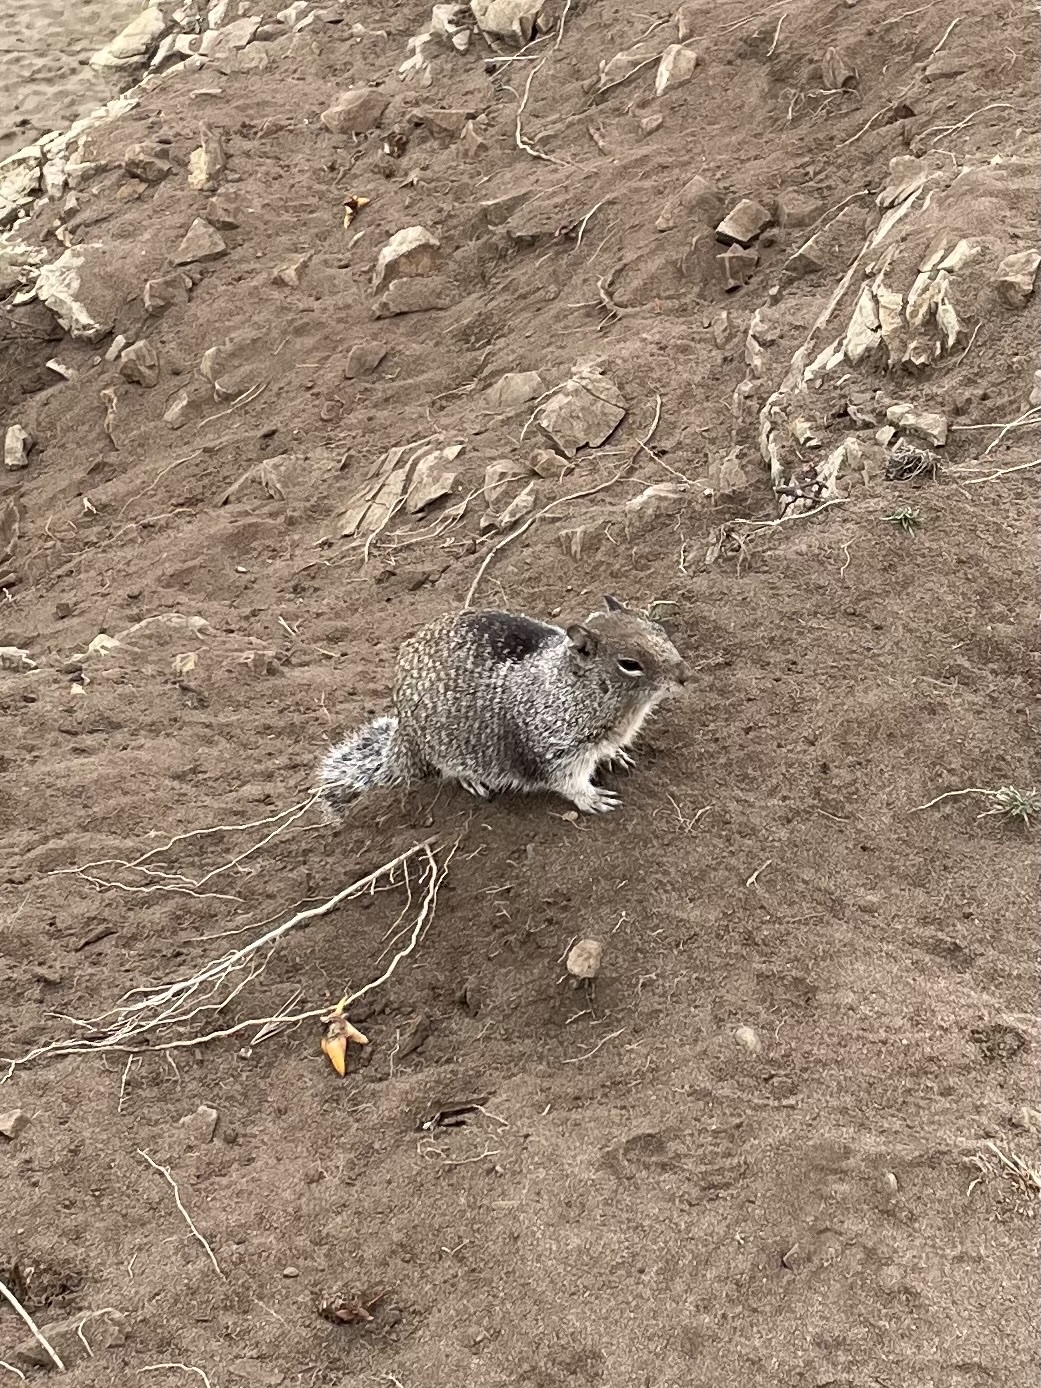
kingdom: Animalia
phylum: Chordata
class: Mammalia
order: Rodentia
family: Sciuridae
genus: Otospermophilus
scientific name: Otospermophilus beecheyi
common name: California ground squirrel
